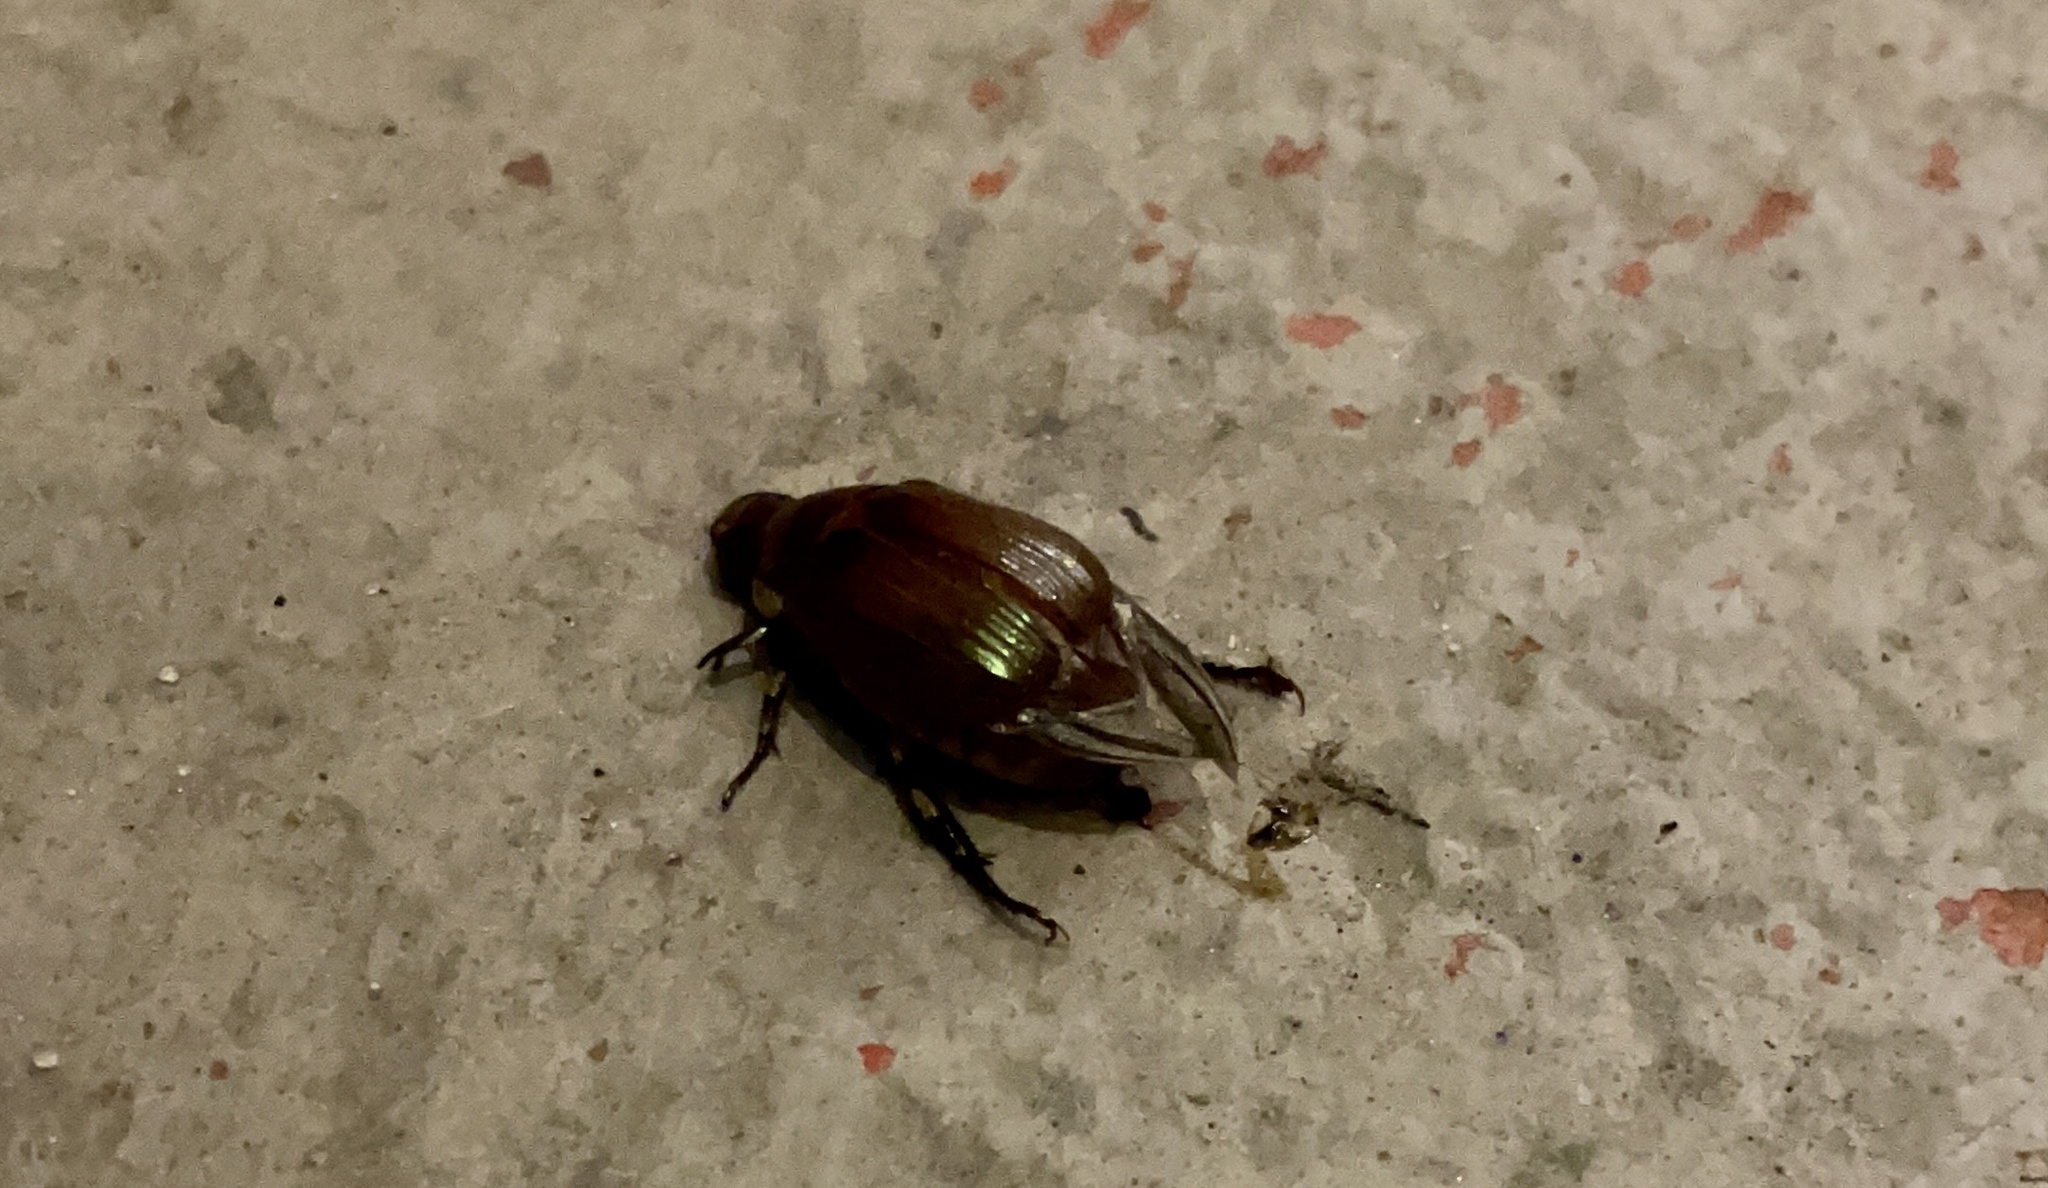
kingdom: Animalia
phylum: Arthropoda
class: Insecta
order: Coleoptera
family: Scarabaeidae
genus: Callistethus
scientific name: Callistethus marginatus
